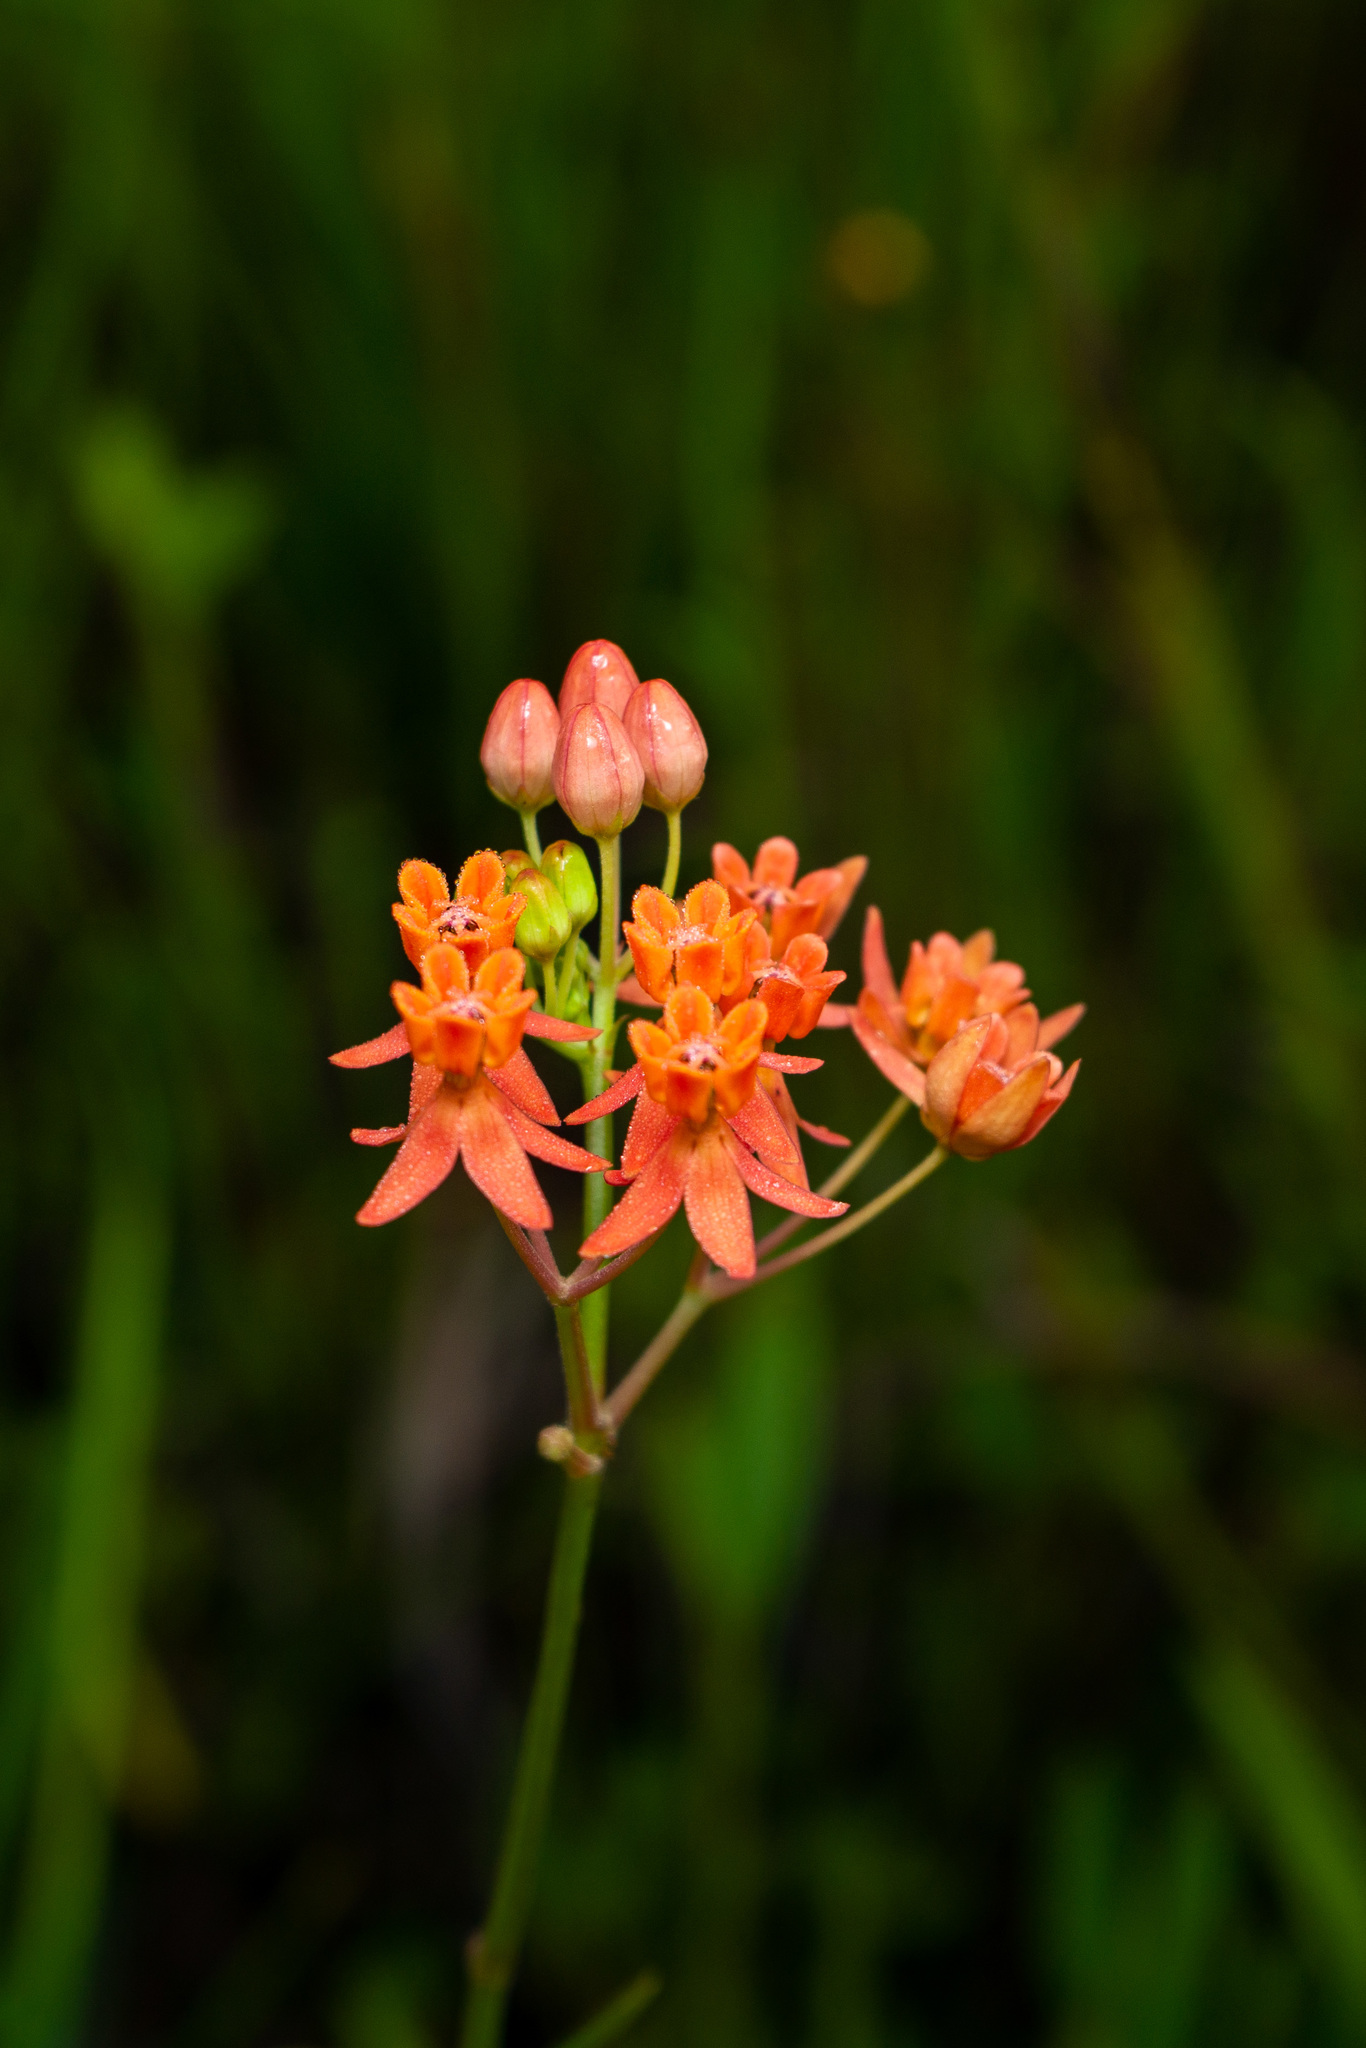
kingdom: Plantae
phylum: Tracheophyta
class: Magnoliopsida
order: Gentianales
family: Apocynaceae
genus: Asclepias
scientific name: Asclepias lanceolata
